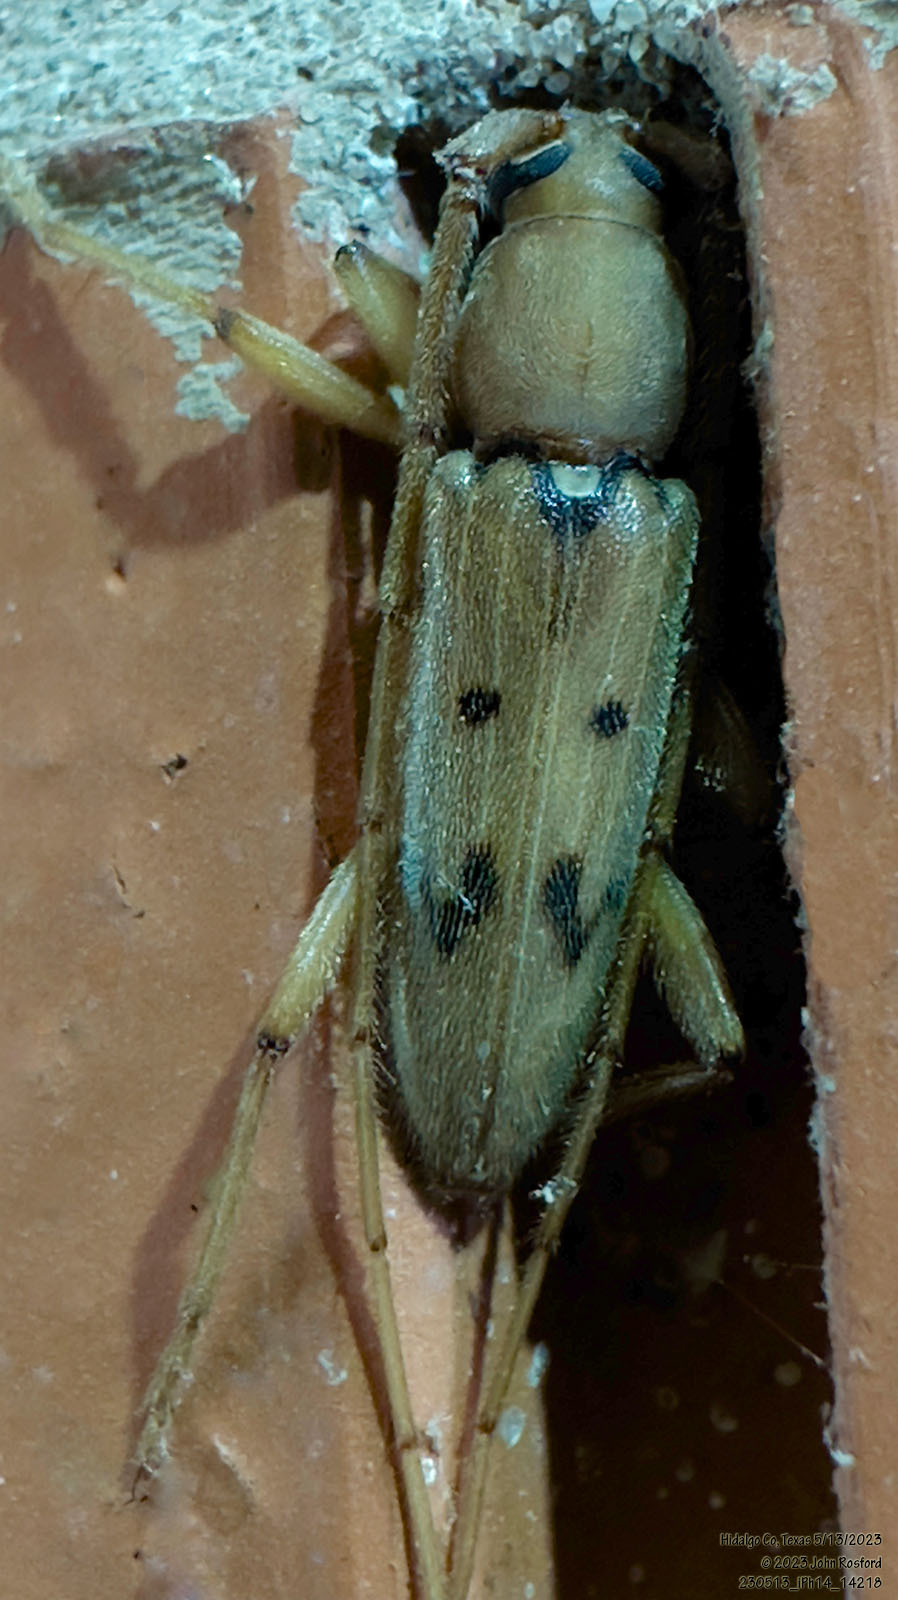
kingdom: Animalia
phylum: Arthropoda
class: Insecta
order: Coleoptera
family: Cerambycidae
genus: Achryson
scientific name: Achryson surinamum
